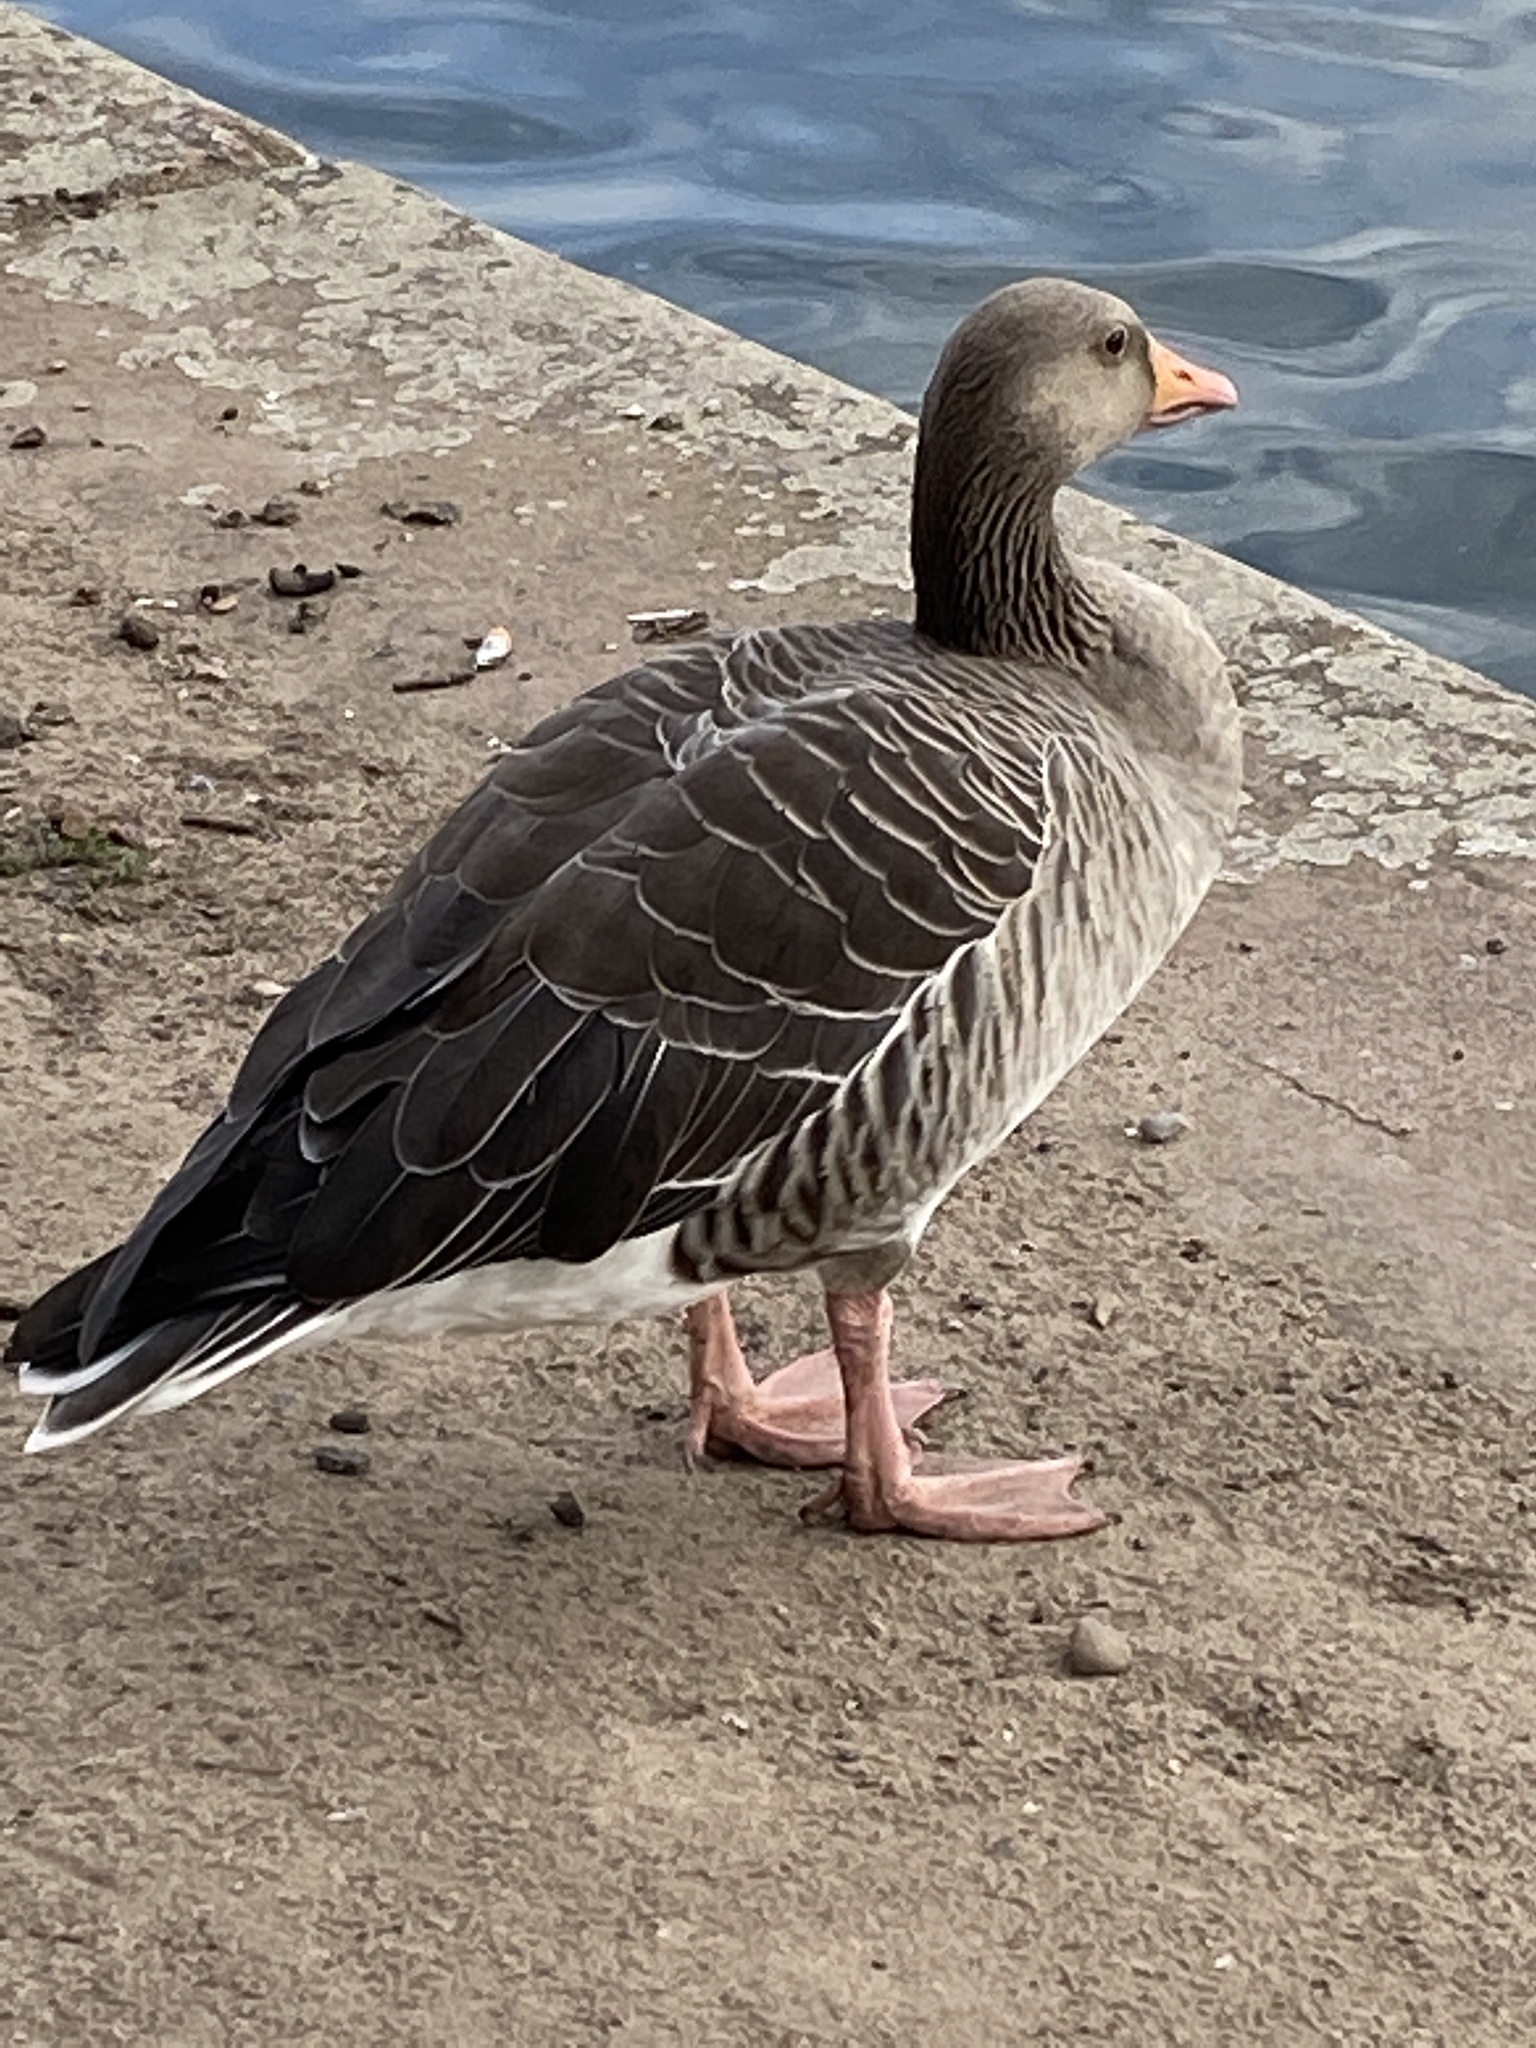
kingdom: Animalia
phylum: Chordata
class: Aves
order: Anseriformes
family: Anatidae
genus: Anser
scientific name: Anser anser
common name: Greylag goose
